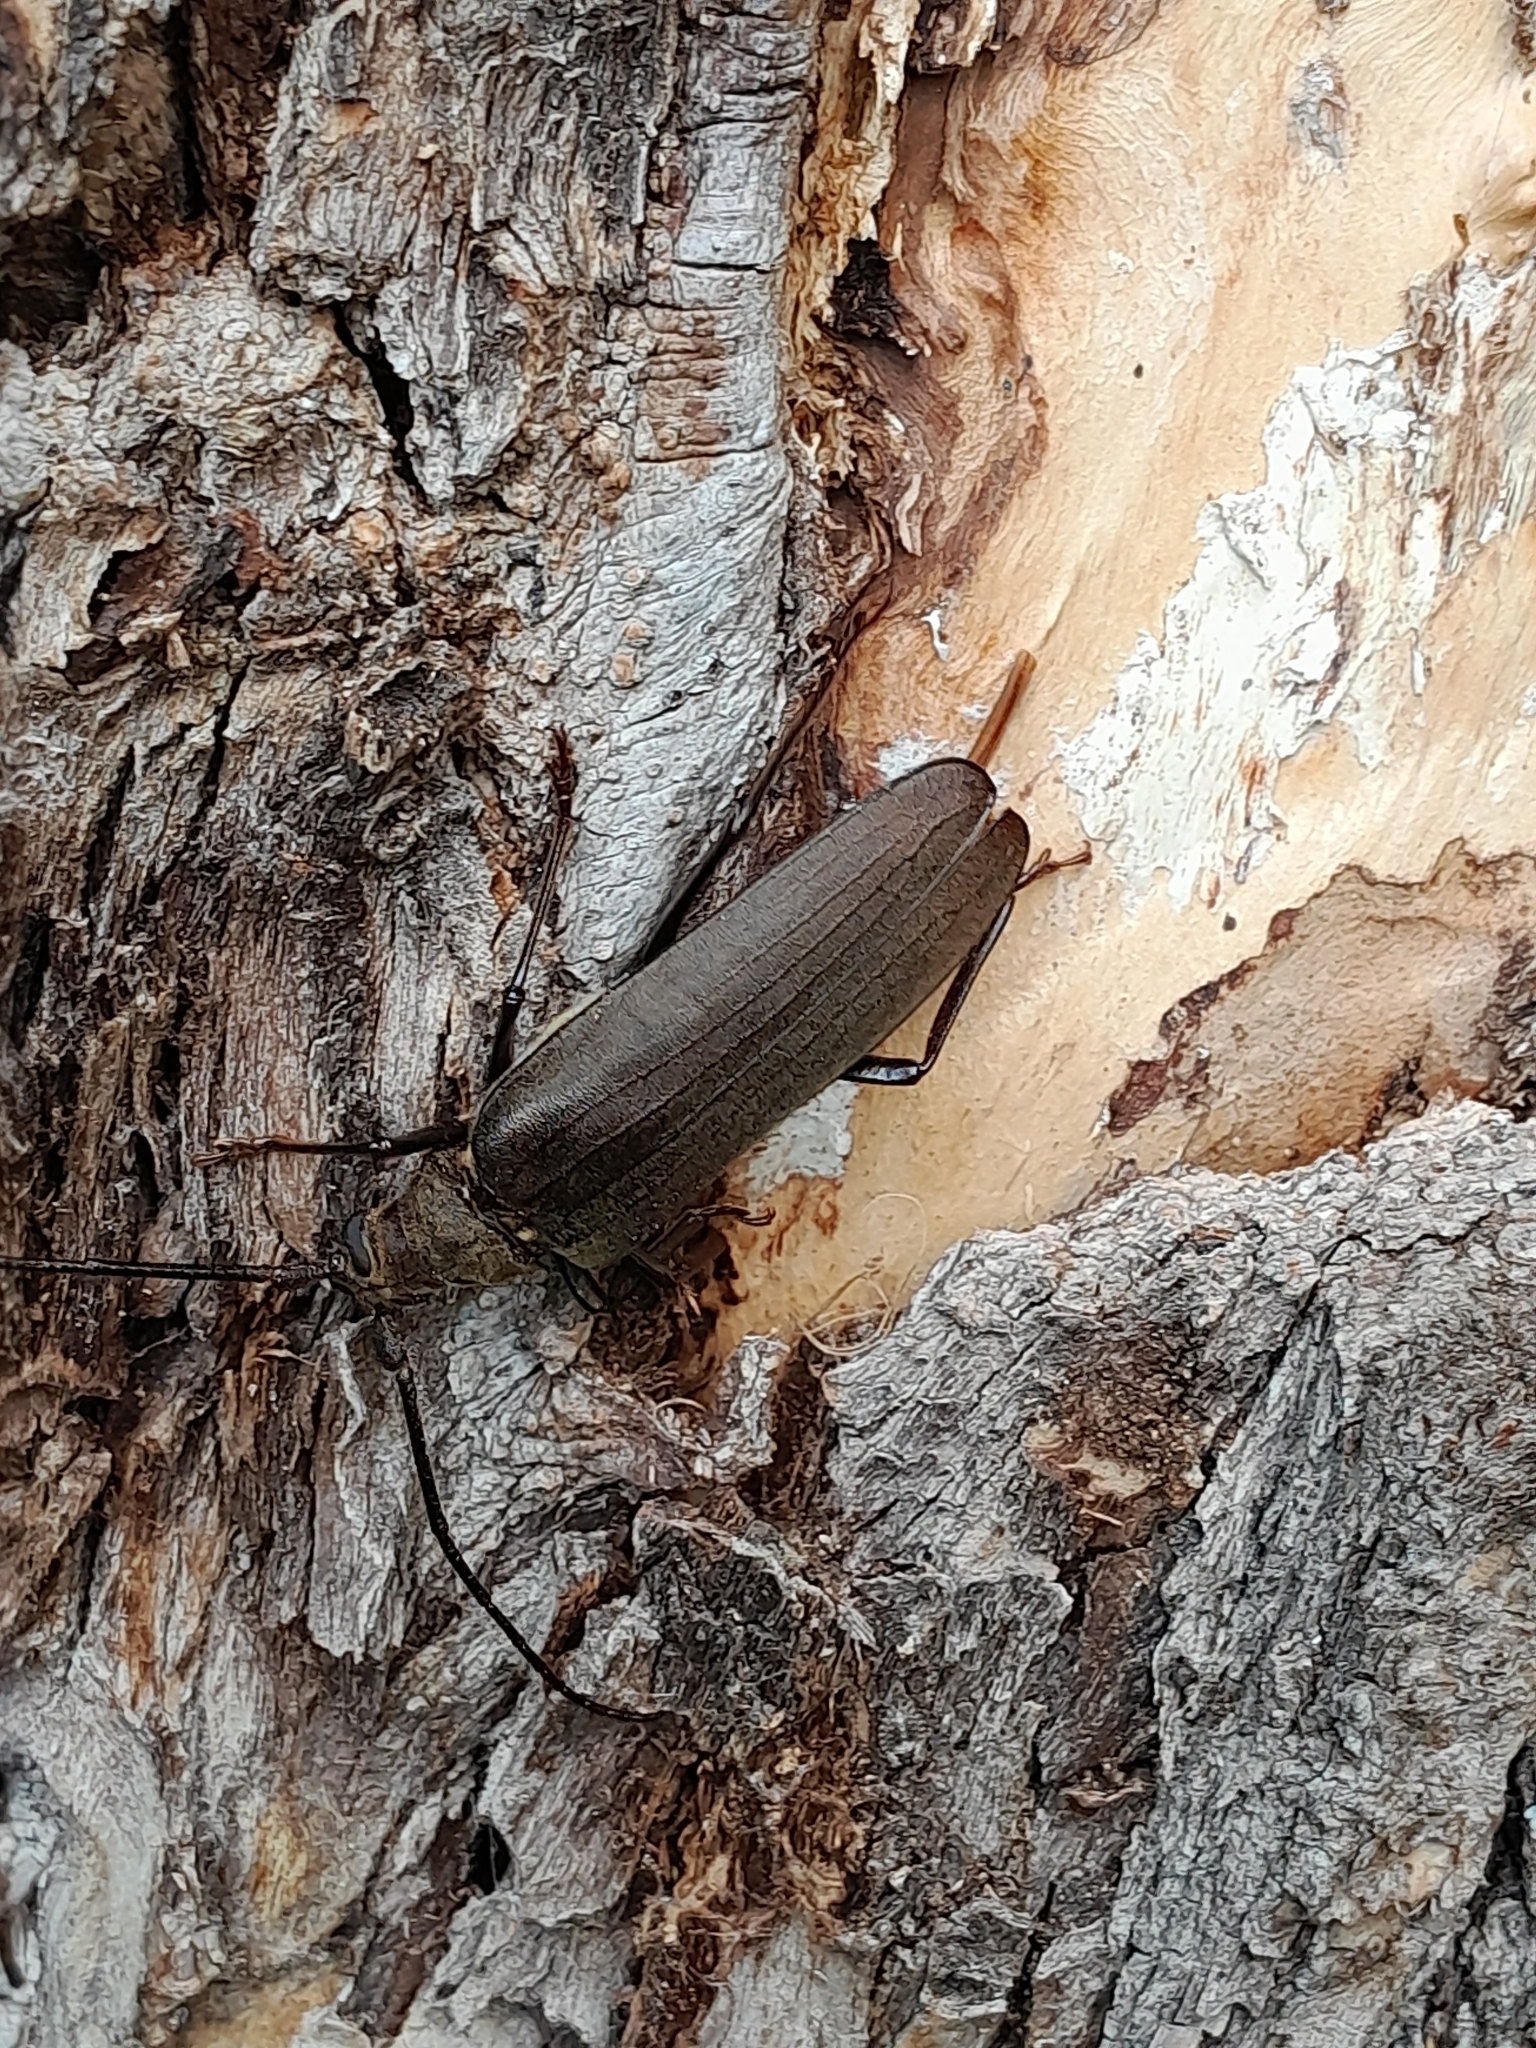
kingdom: Animalia
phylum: Arthropoda
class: Insecta
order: Coleoptera
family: Cerambycidae
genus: Aegosoma
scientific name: Aegosoma scabricorne
